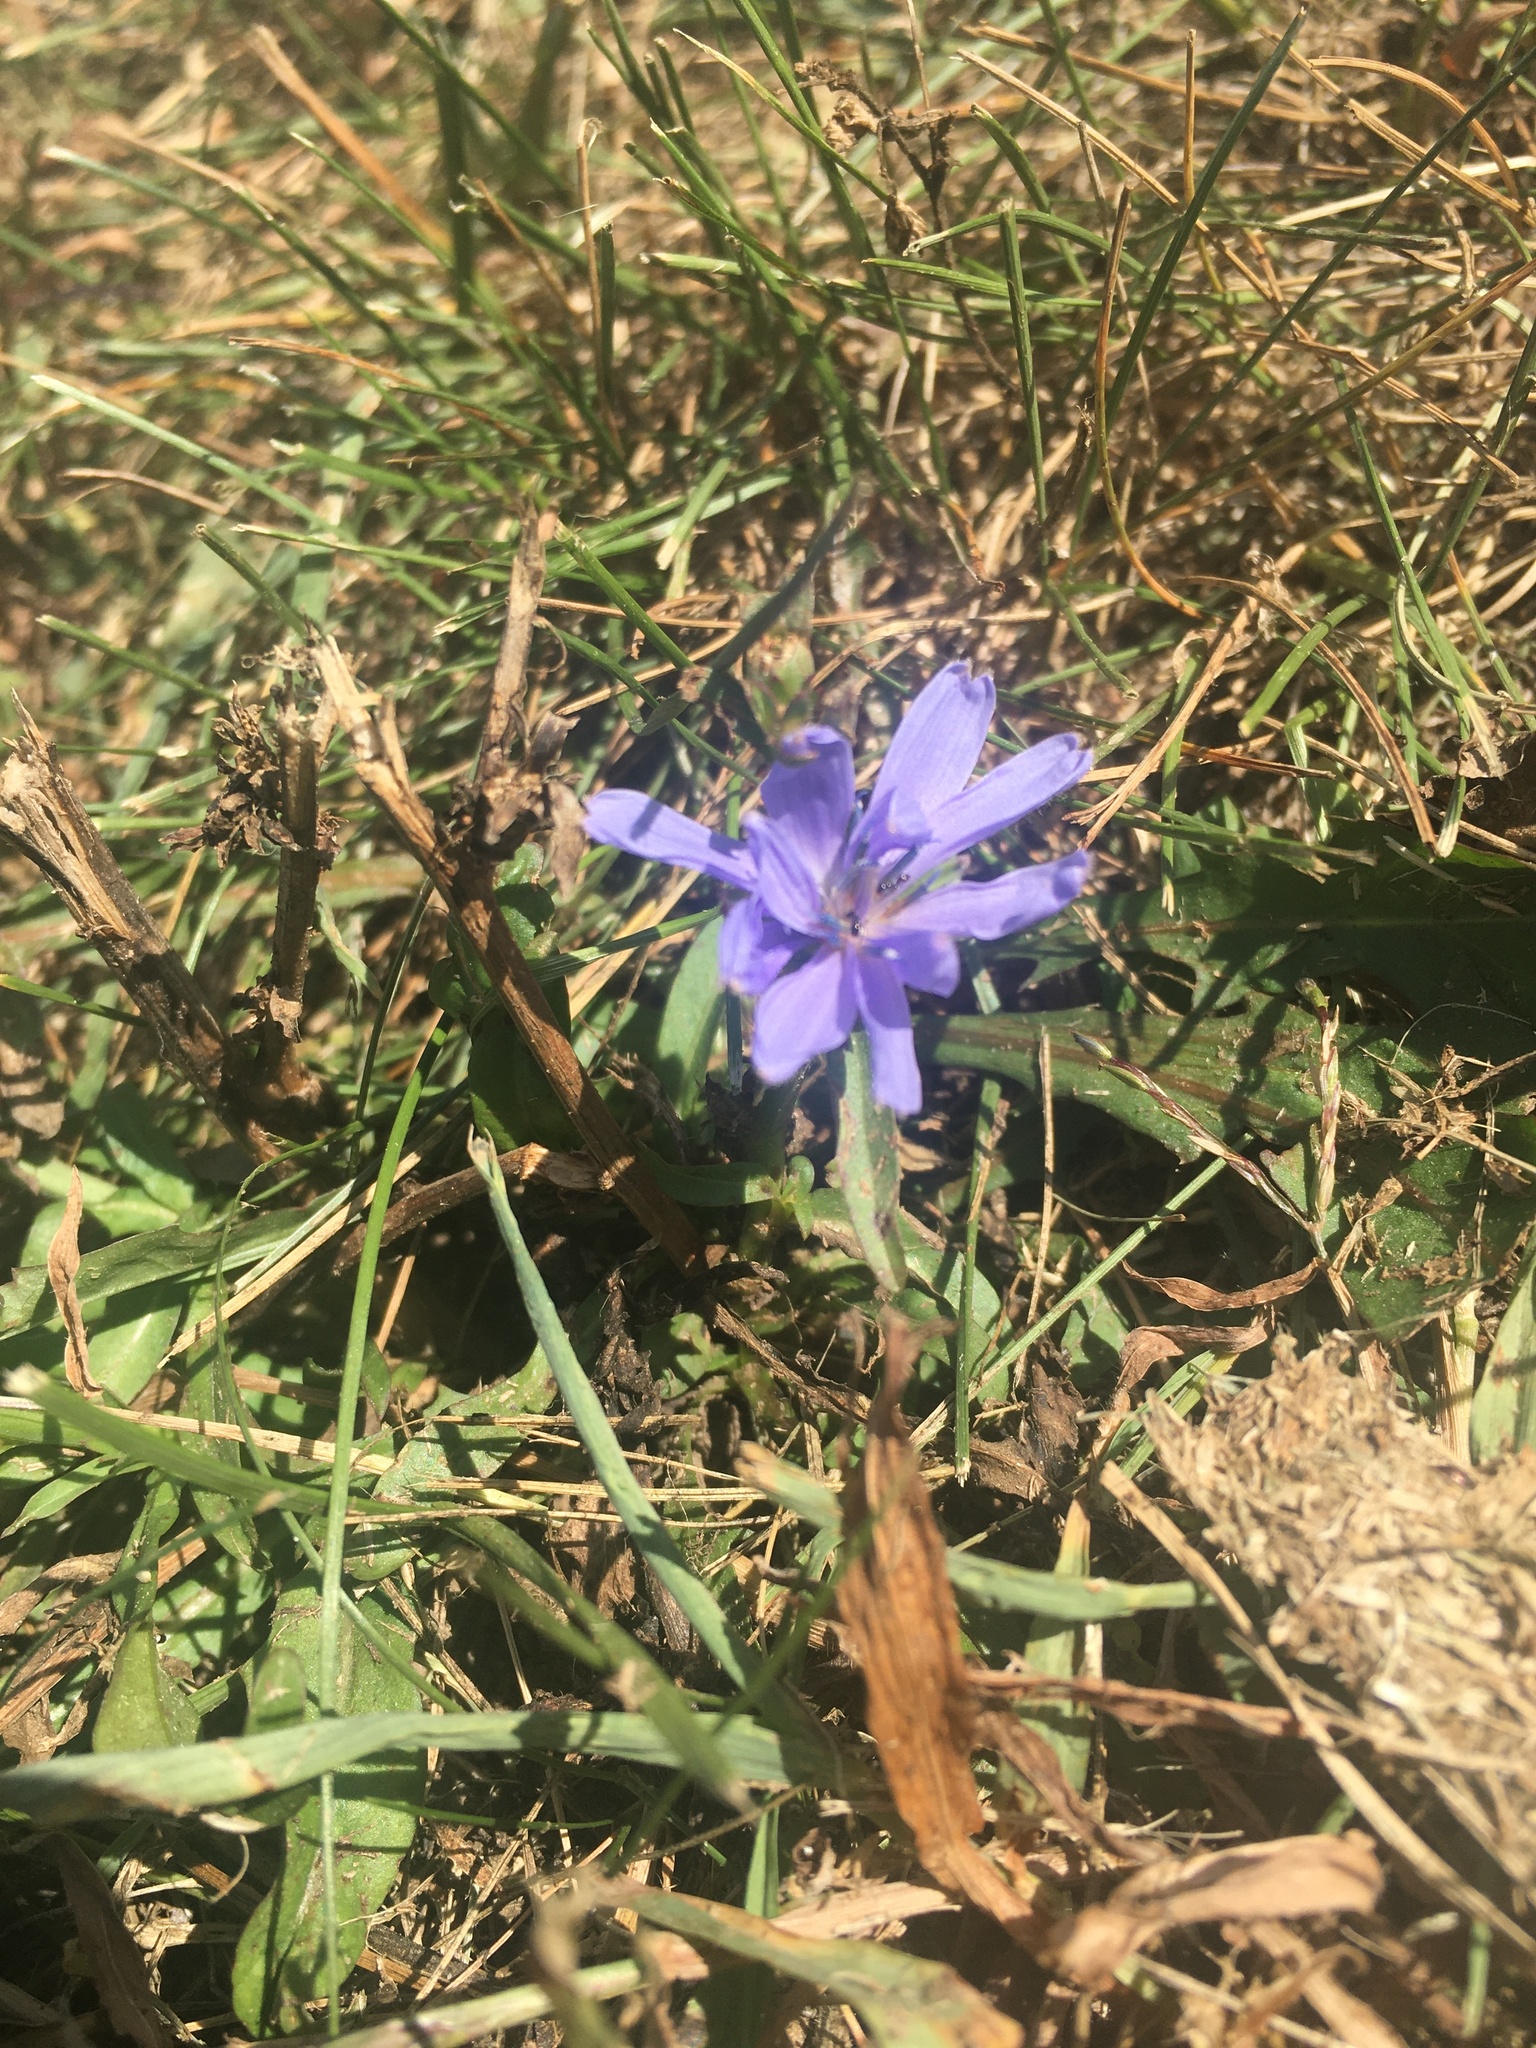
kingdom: Plantae
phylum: Tracheophyta
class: Magnoliopsida
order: Asterales
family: Asteraceae
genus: Cichorium
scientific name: Cichorium intybus
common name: Chicory
